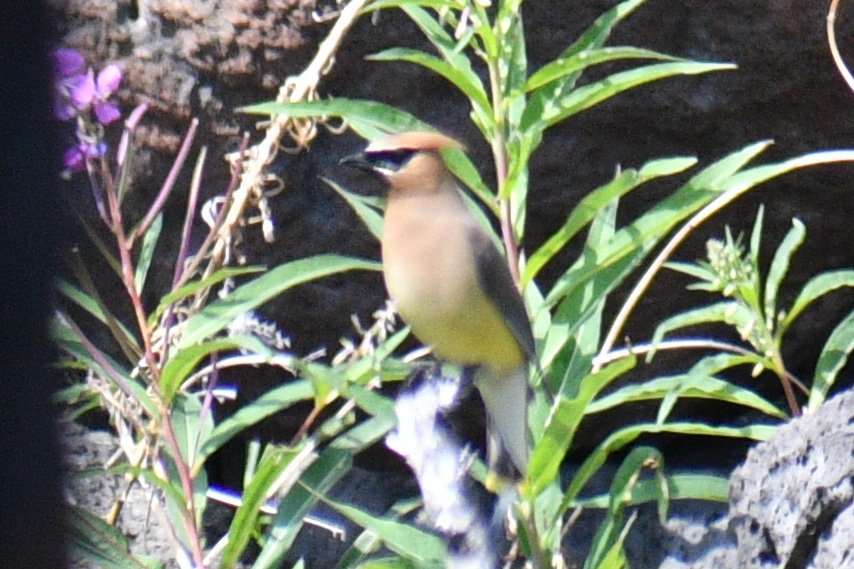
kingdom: Animalia
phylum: Chordata
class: Aves
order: Passeriformes
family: Bombycillidae
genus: Bombycilla
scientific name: Bombycilla cedrorum
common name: Cedar waxwing
